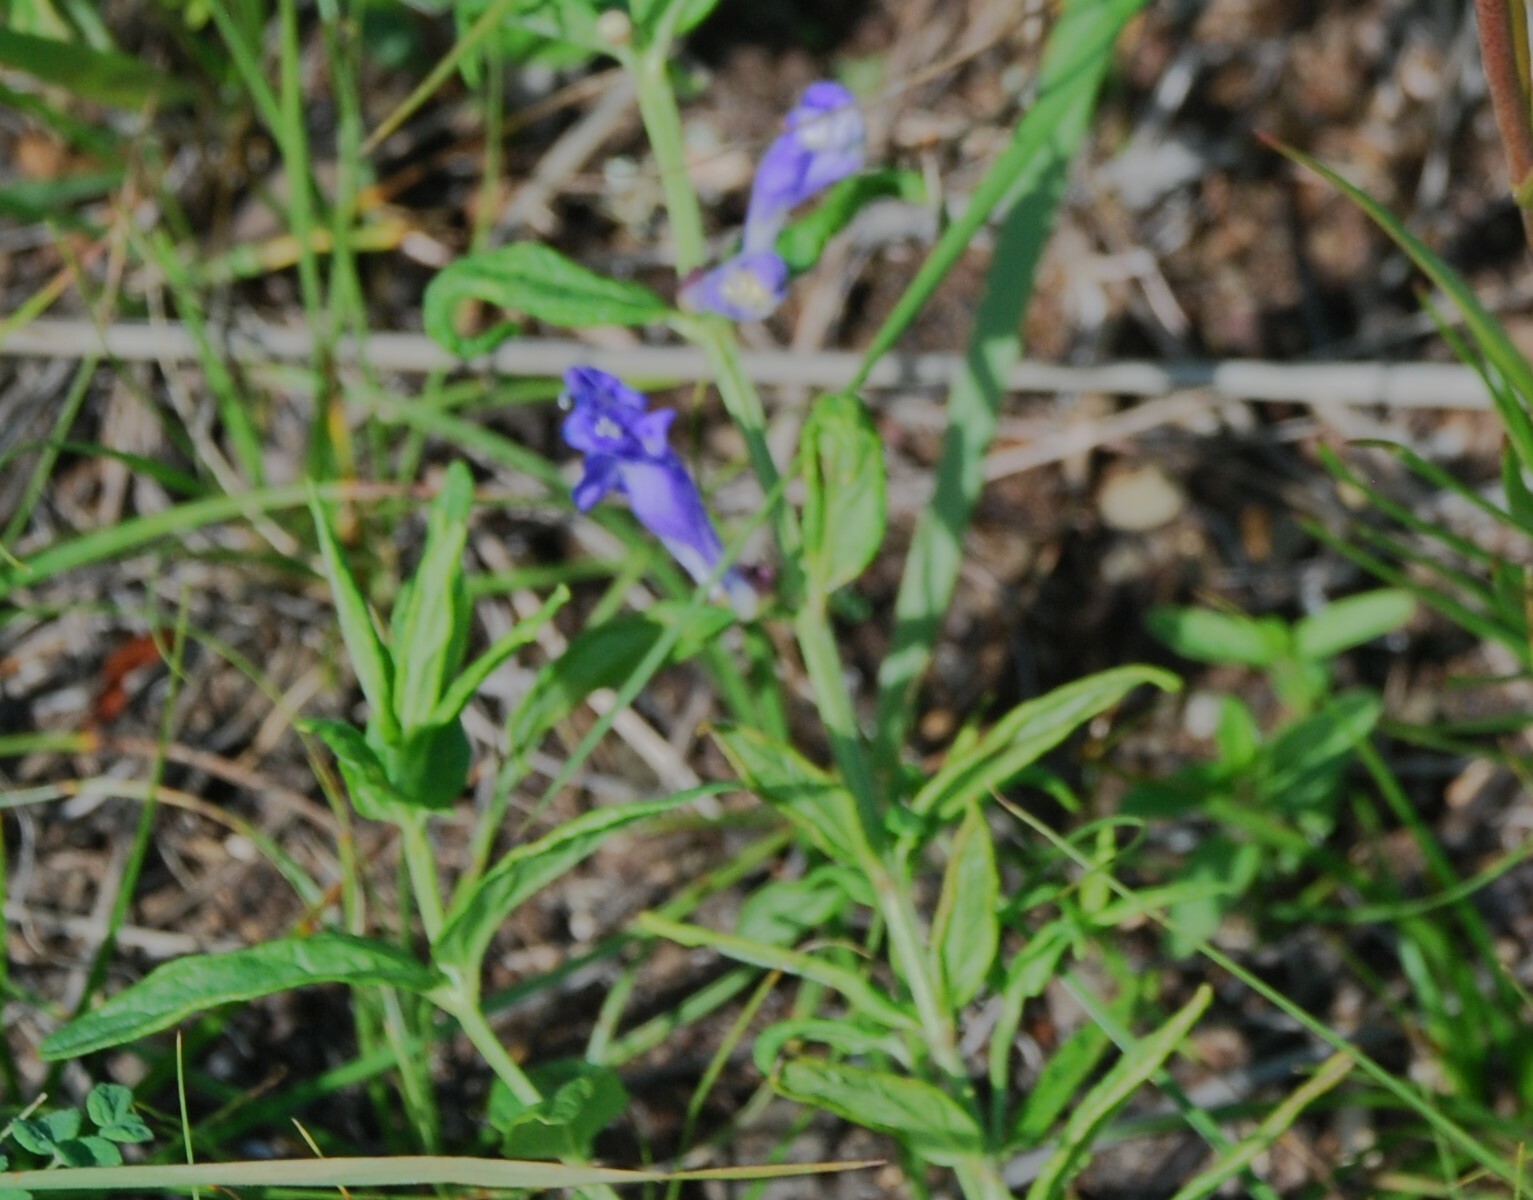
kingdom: Plantae
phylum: Tracheophyta
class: Magnoliopsida
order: Lamiales
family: Lamiaceae
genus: Scutellaria
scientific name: Scutellaria scordiifolia
